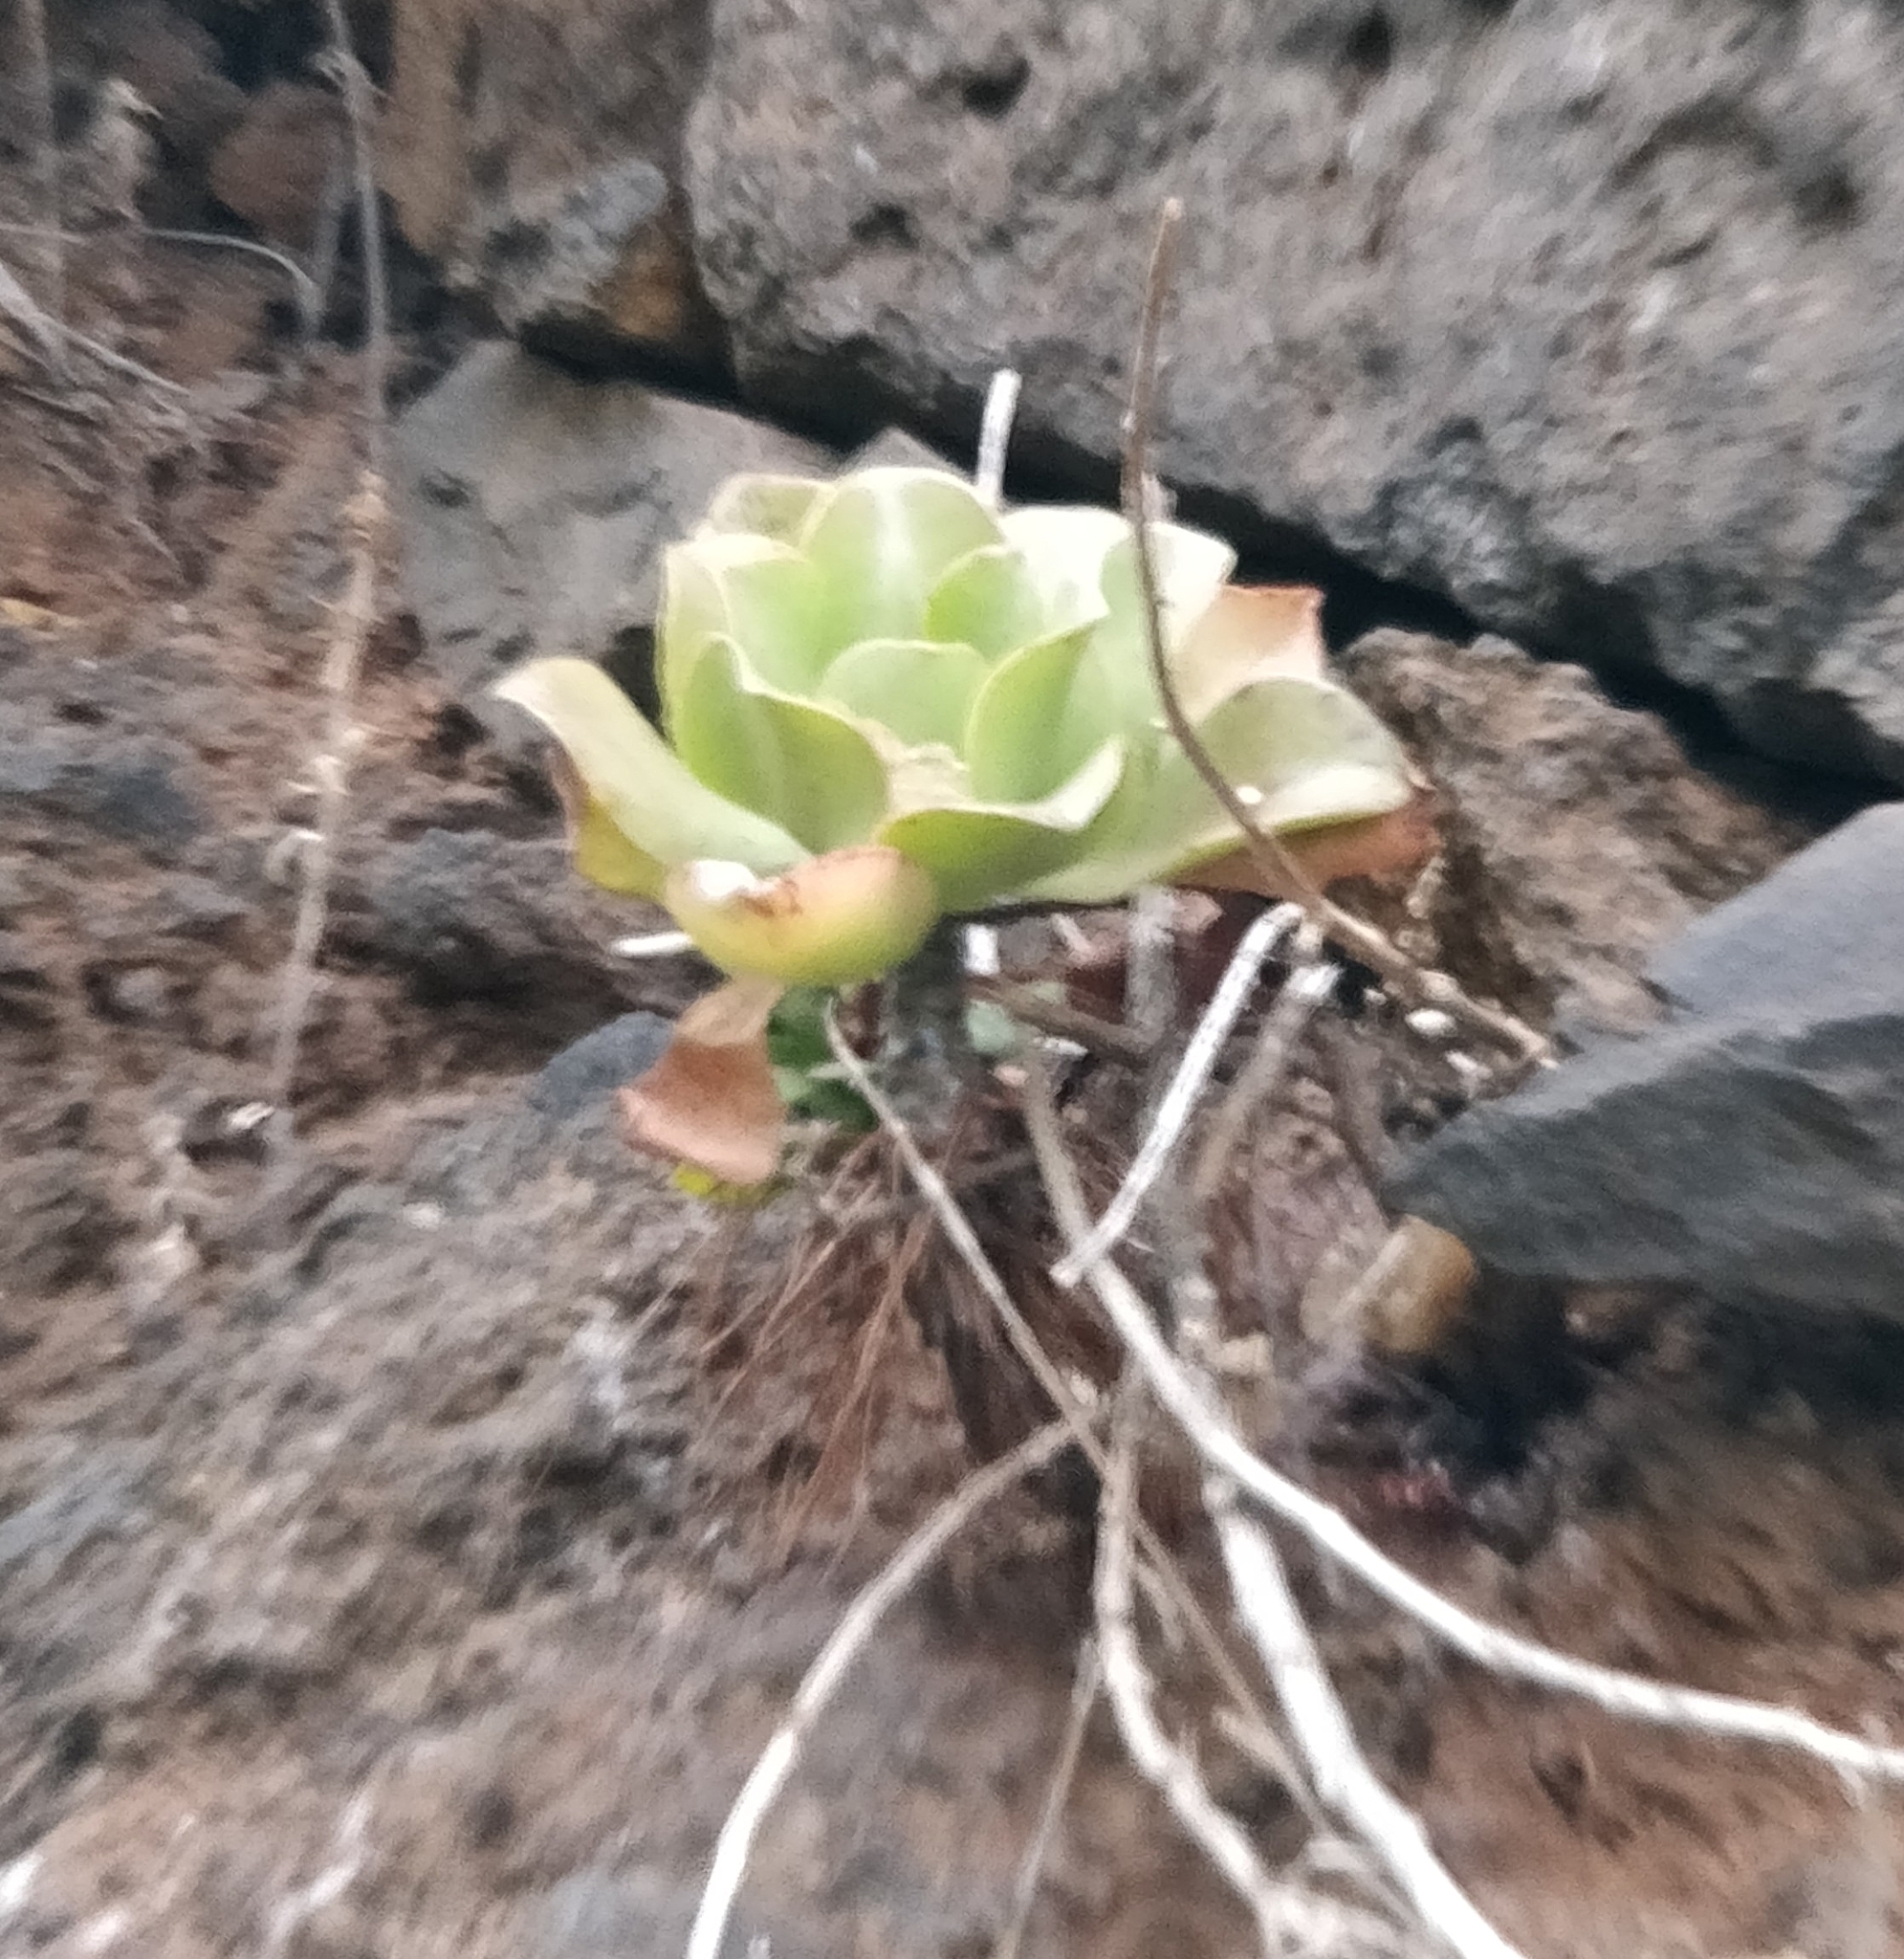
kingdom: Plantae
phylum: Tracheophyta
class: Magnoliopsida
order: Saxifragales
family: Crassulaceae
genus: Aeonium
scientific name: Aeonium glutinosum
